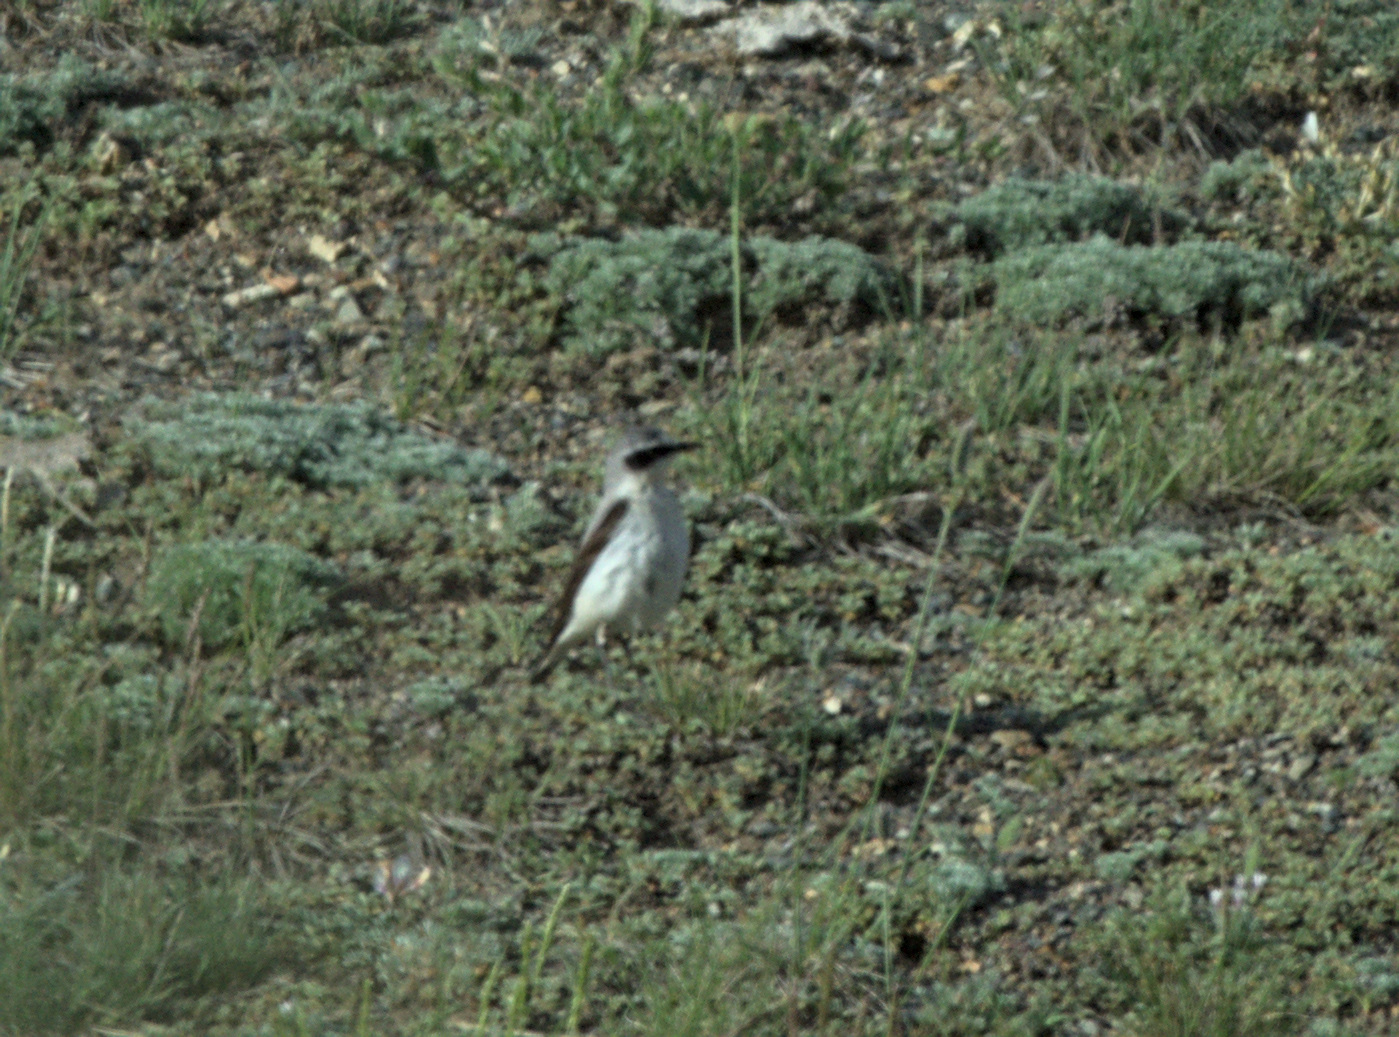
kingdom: Animalia
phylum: Chordata
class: Aves
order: Passeriformes
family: Muscicapidae
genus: Oenanthe
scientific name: Oenanthe oenanthe
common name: Northern wheatear
